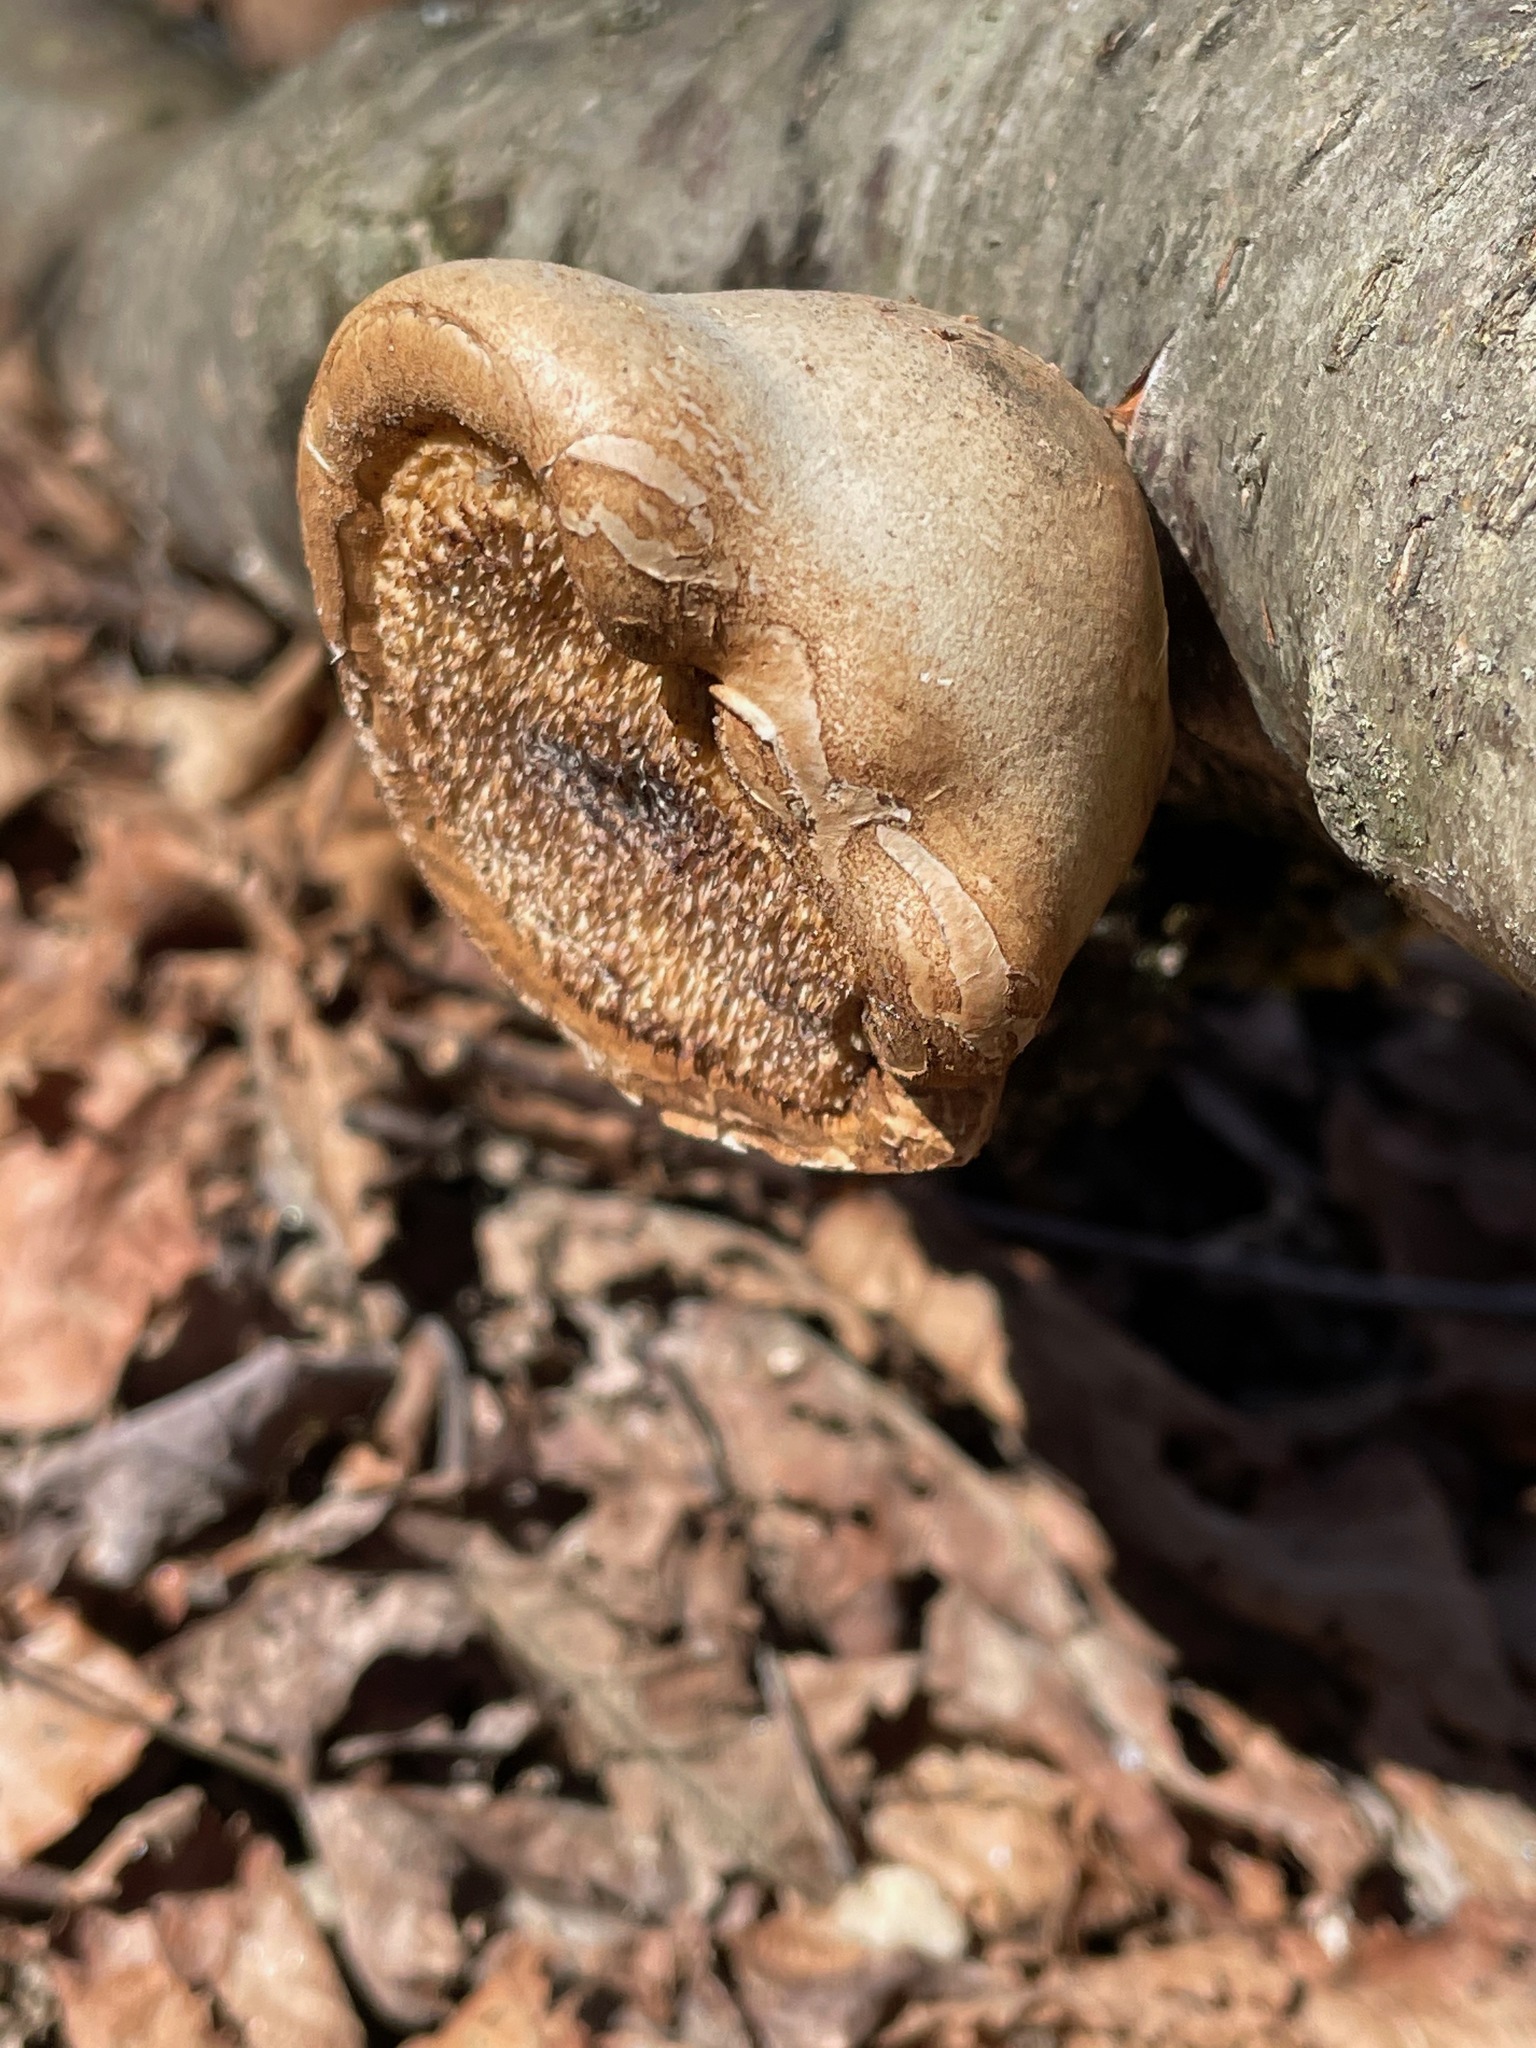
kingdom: Fungi
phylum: Basidiomycota
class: Agaricomycetes
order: Polyporales
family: Fomitopsidaceae
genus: Fomitopsis
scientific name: Fomitopsis betulina
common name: Birch polypore
